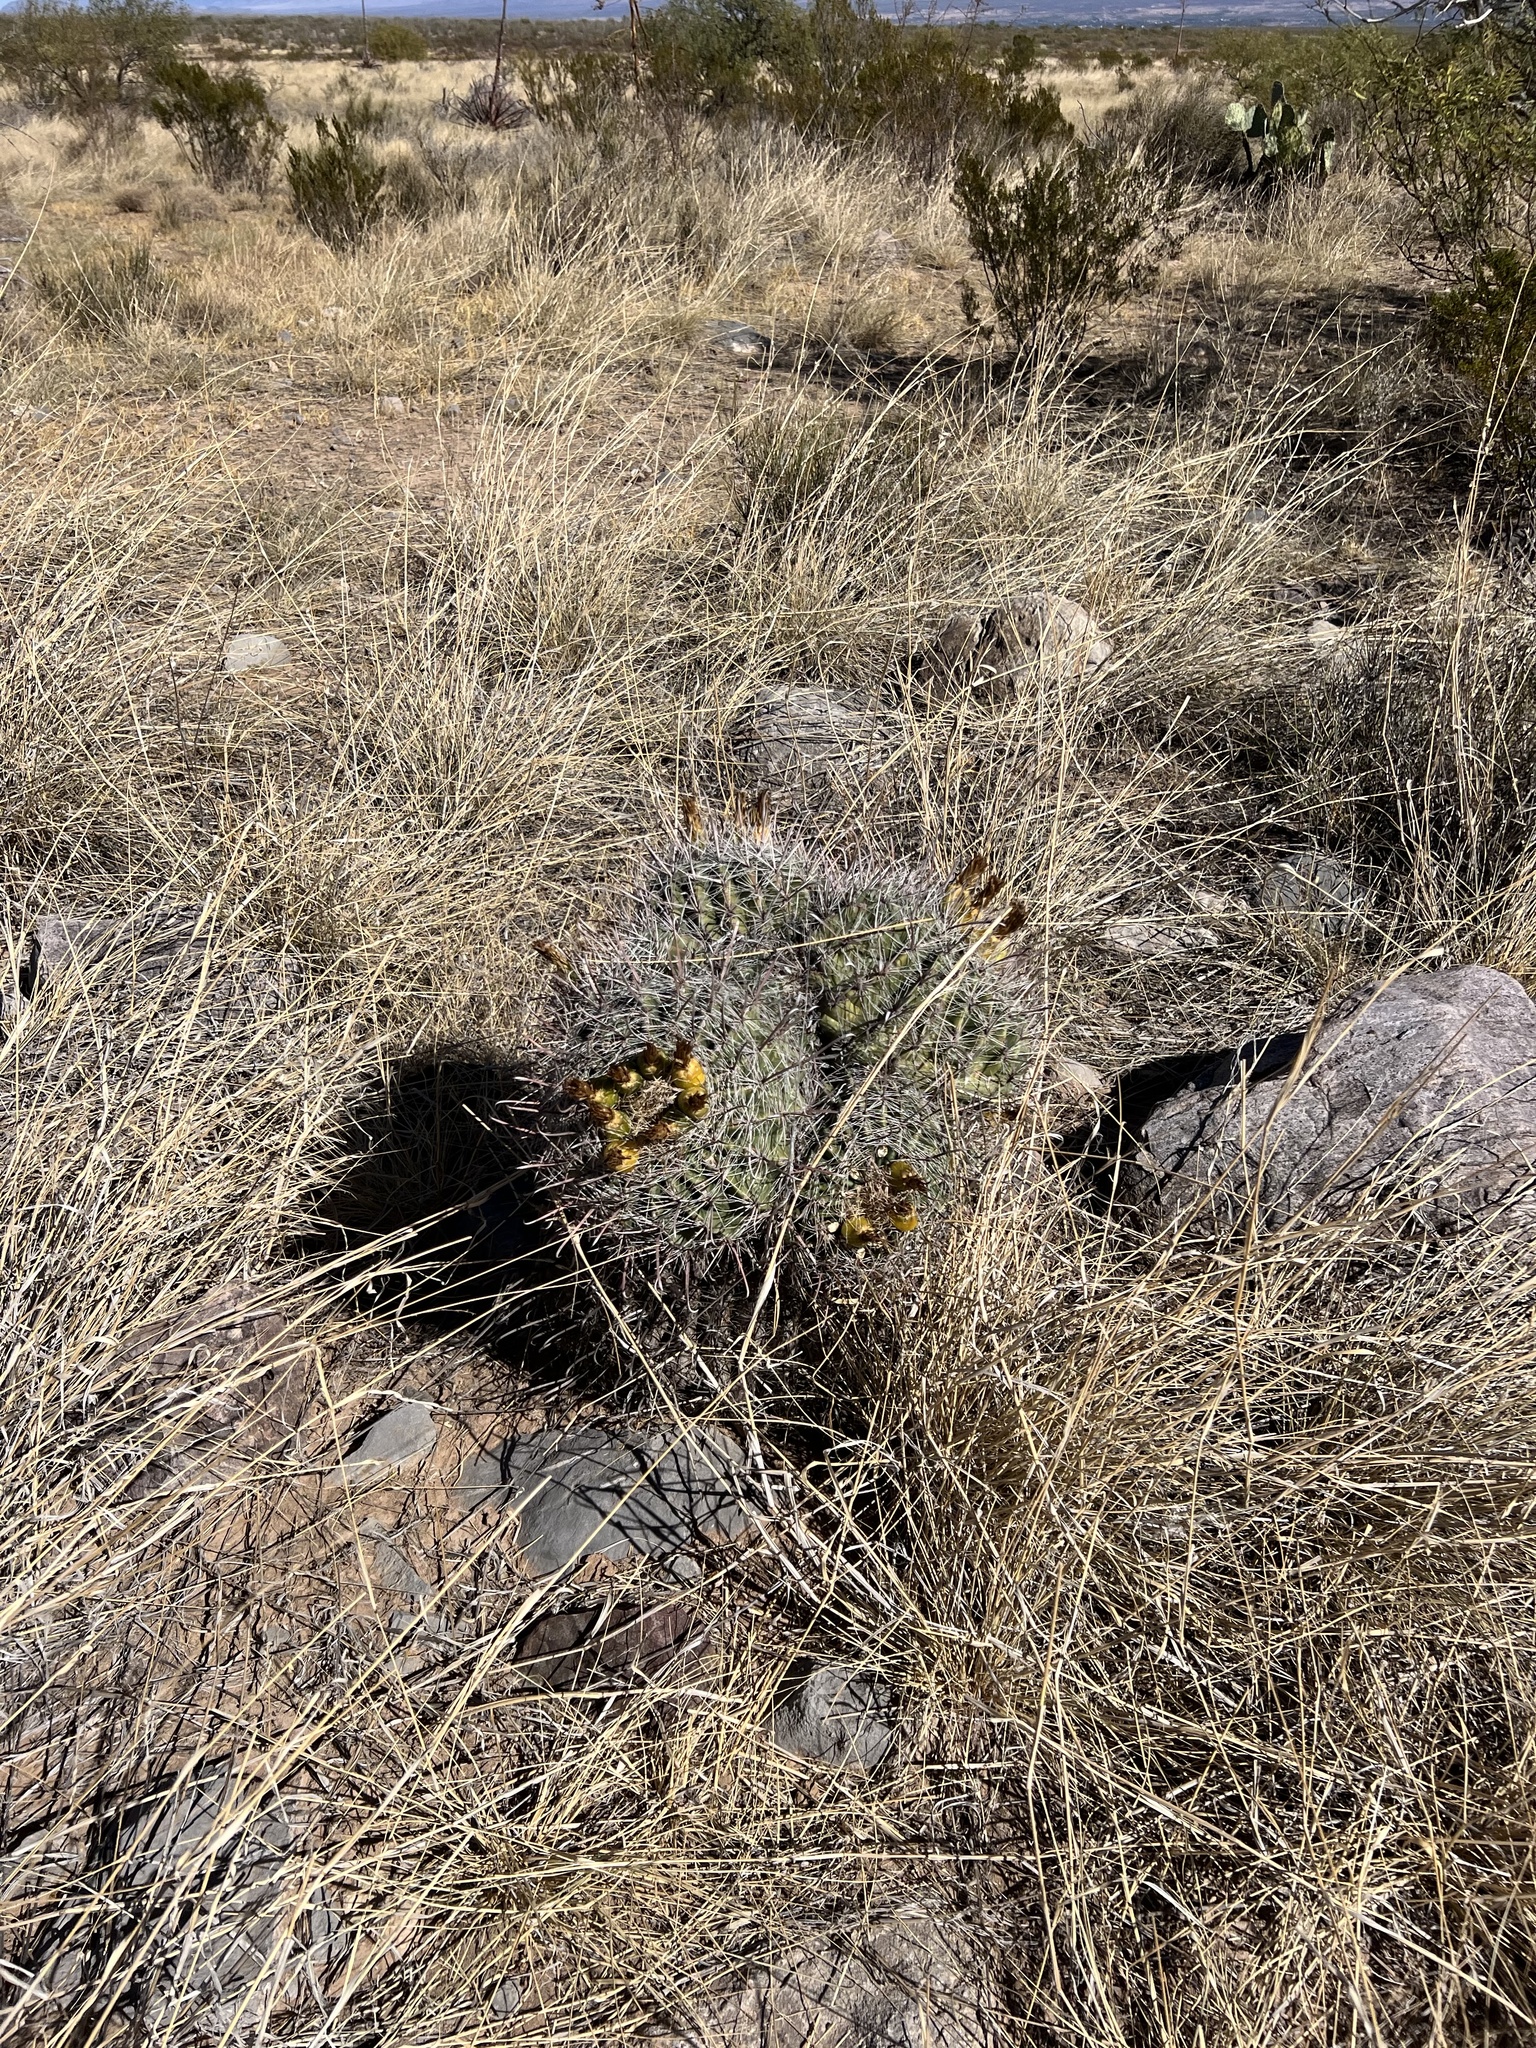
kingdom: Plantae
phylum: Tracheophyta
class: Magnoliopsida
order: Caryophyllales
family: Cactaceae
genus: Ferocactus
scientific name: Ferocactus wislizeni
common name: Candy barrel cactus
